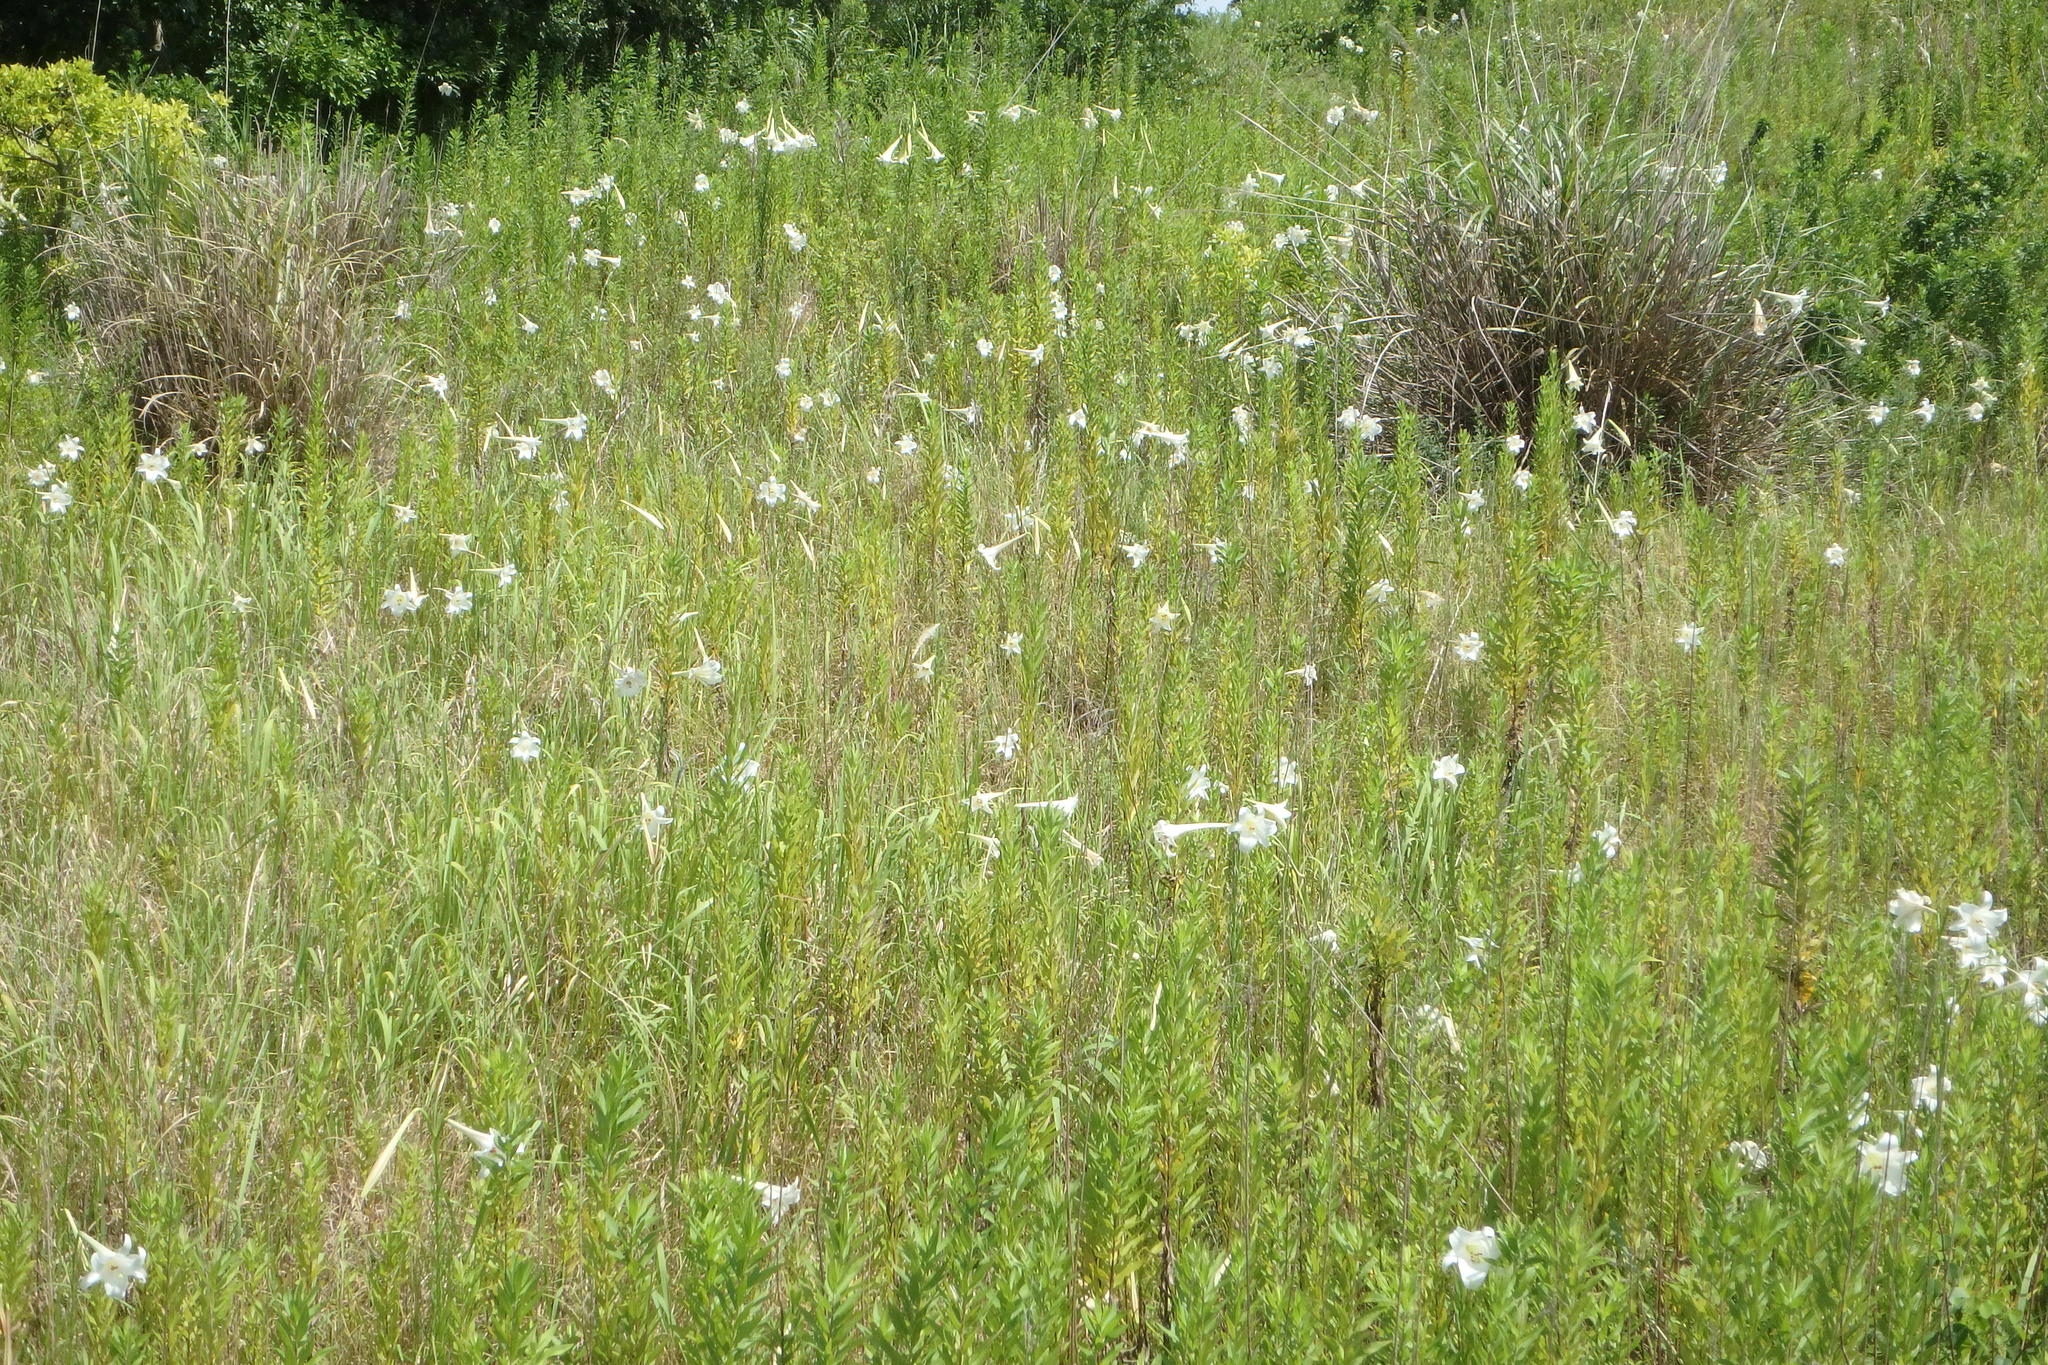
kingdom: Plantae
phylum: Tracheophyta
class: Liliopsida
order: Liliales
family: Liliaceae
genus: Lilium
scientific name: Lilium formosanum
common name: Formosa lily
